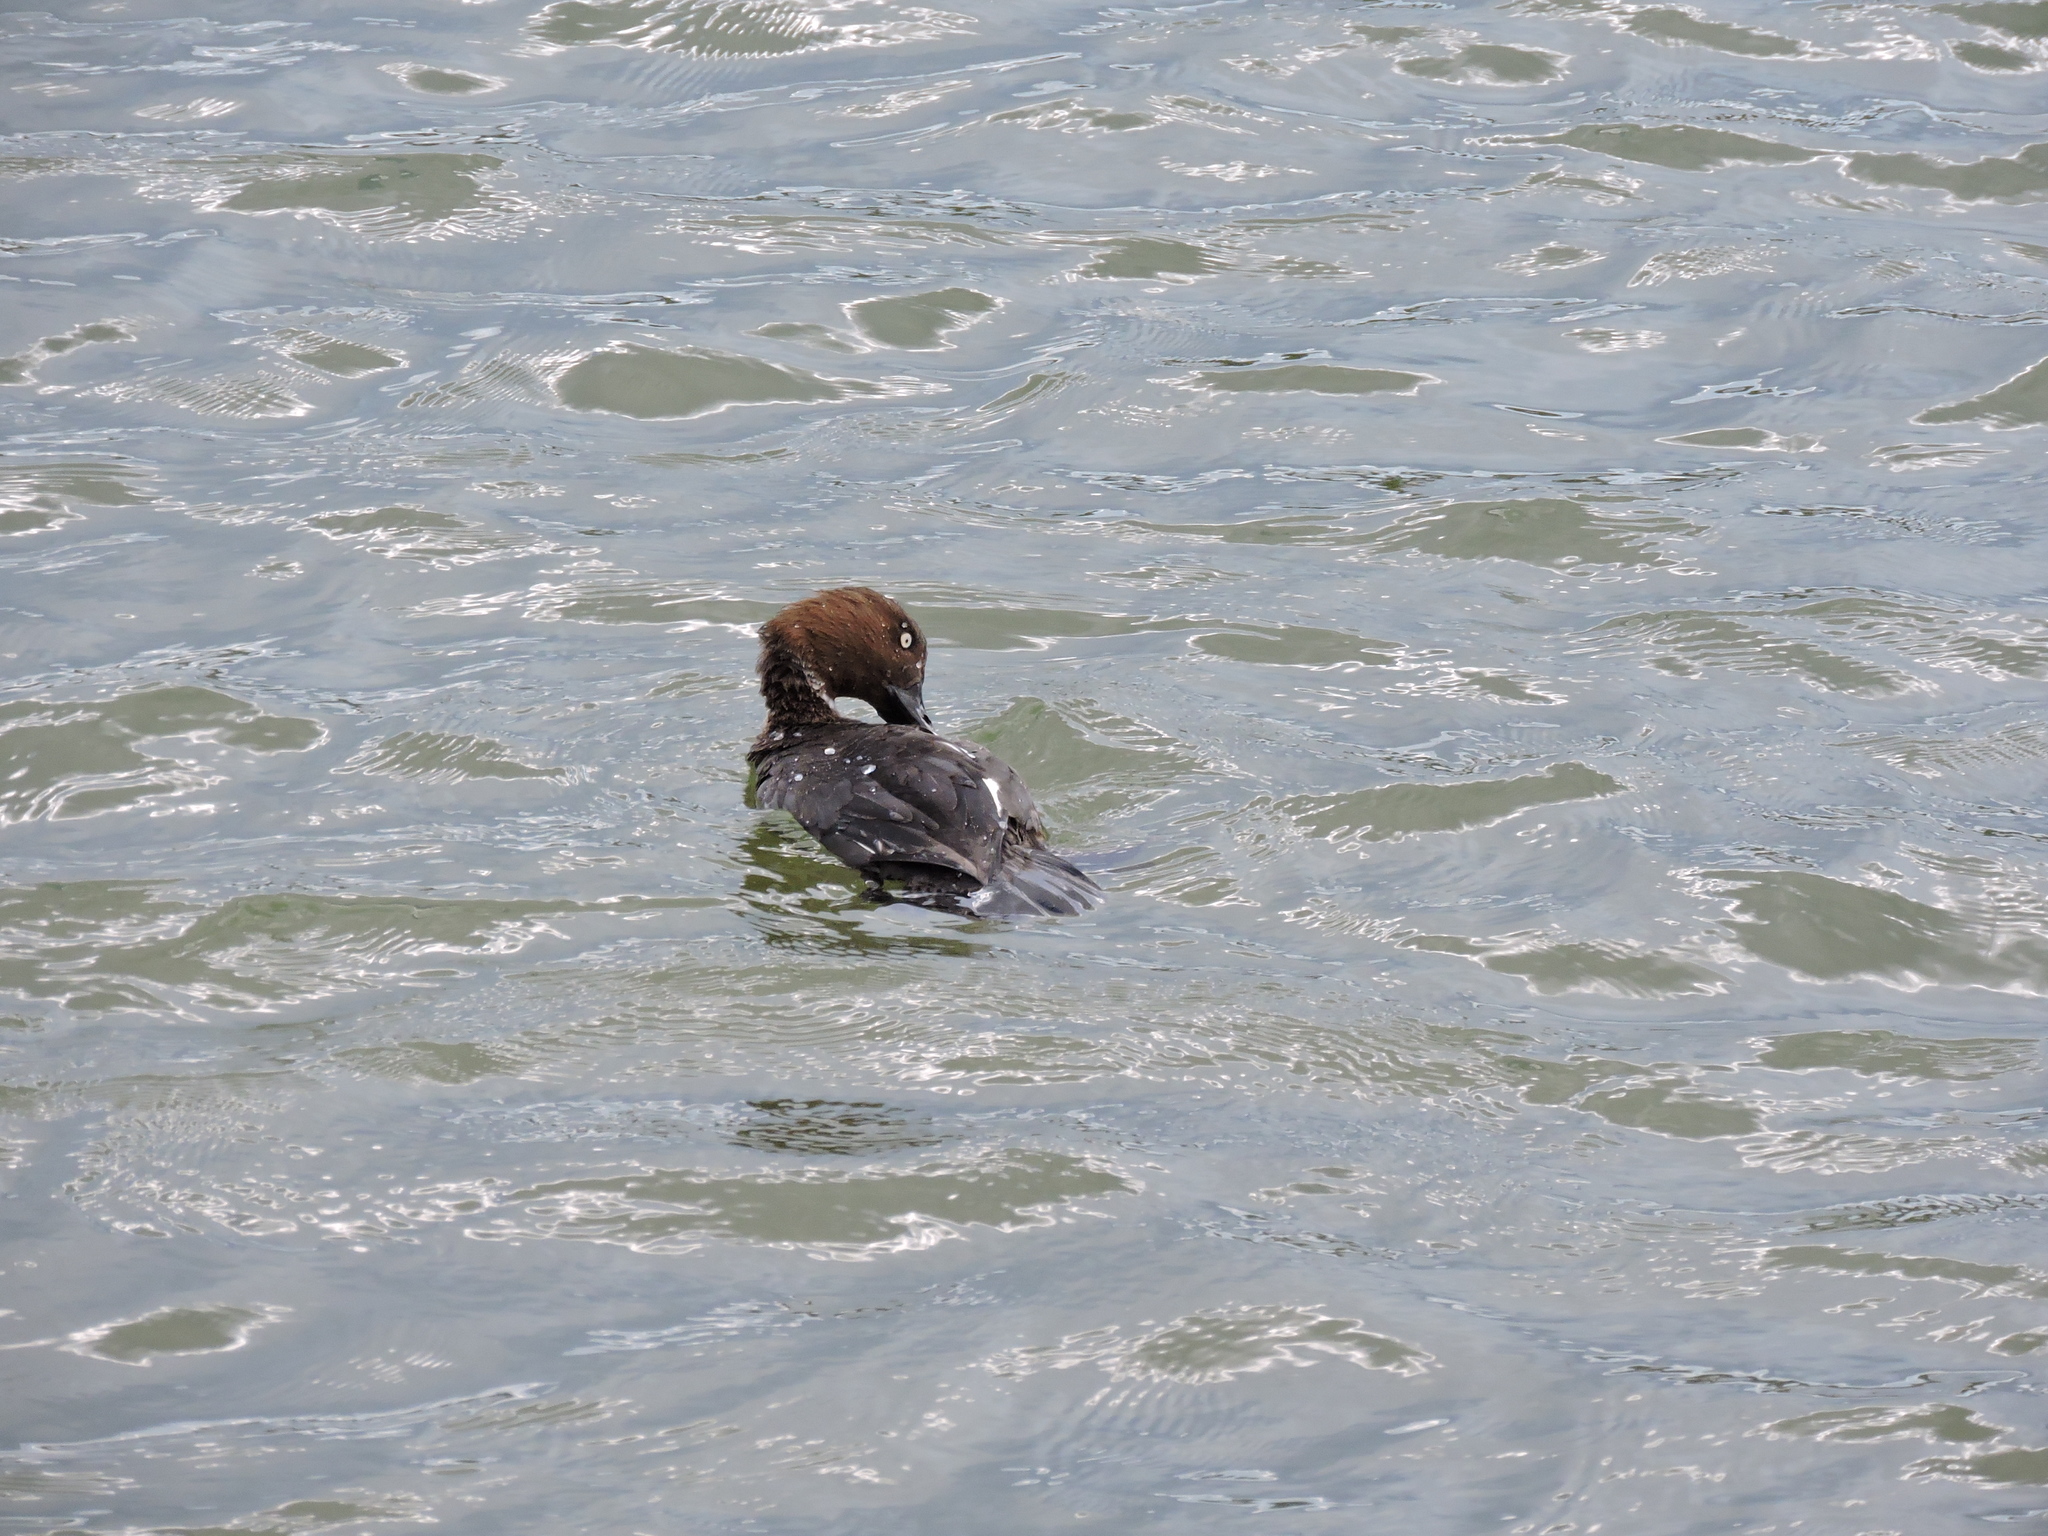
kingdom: Animalia
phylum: Chordata
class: Aves
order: Anseriformes
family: Anatidae
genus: Bucephala
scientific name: Bucephala clangula
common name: Common goldeneye
